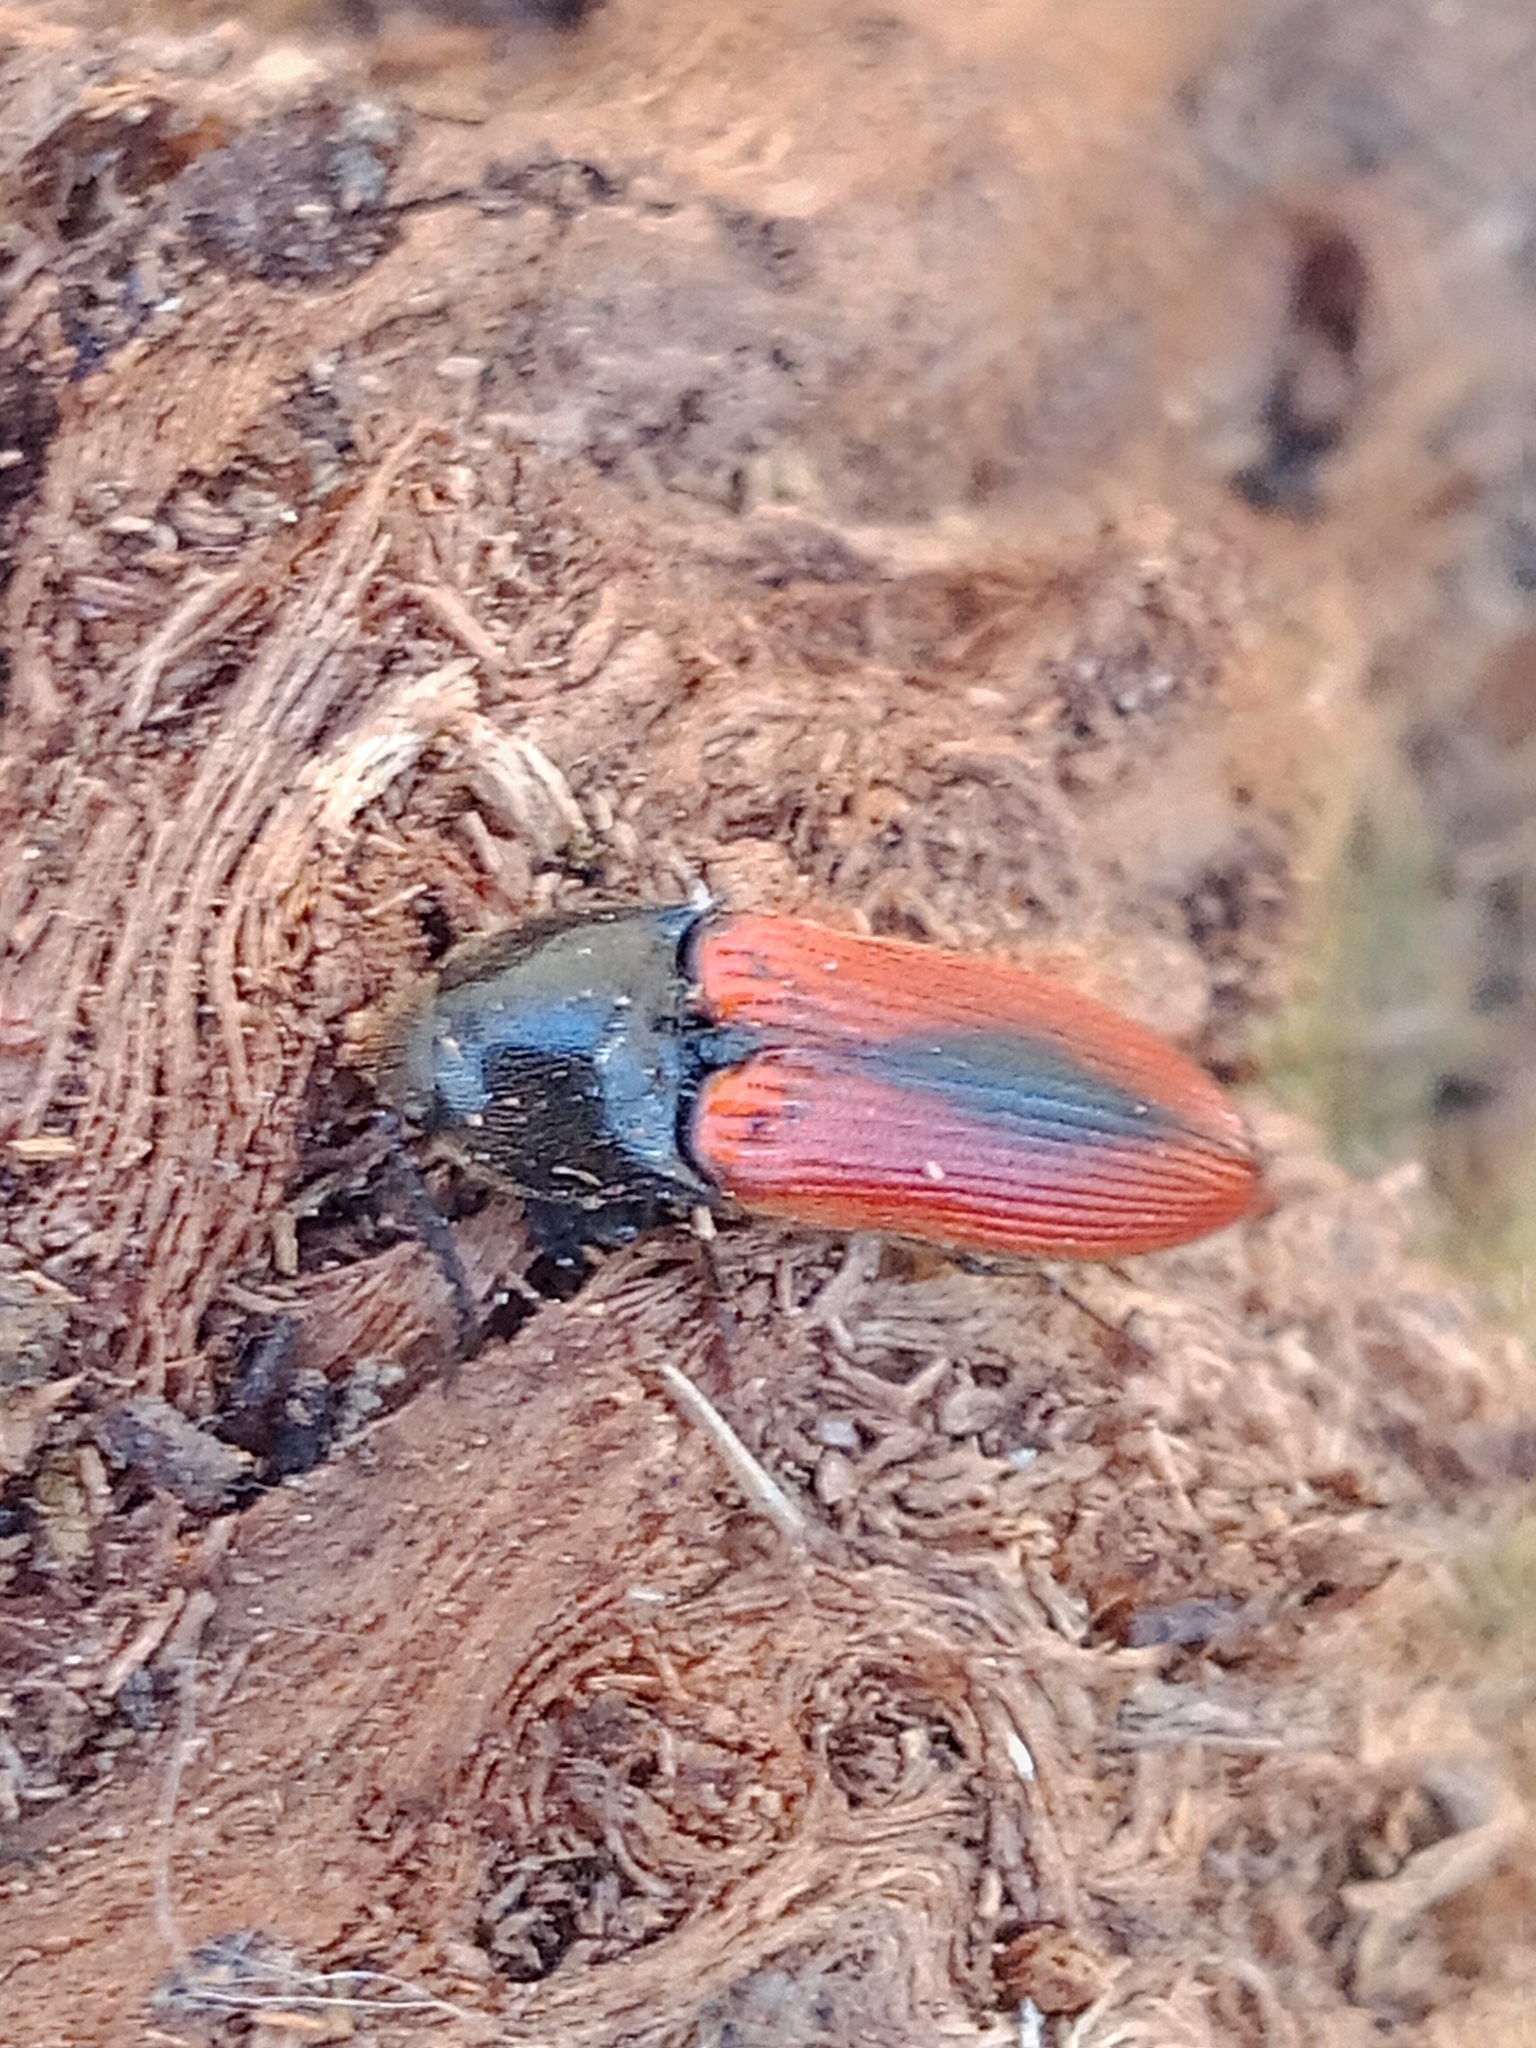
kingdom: Animalia
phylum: Arthropoda
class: Insecta
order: Coleoptera
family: Elateridae
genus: Ampedus
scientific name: Ampedus sanguinolentus
